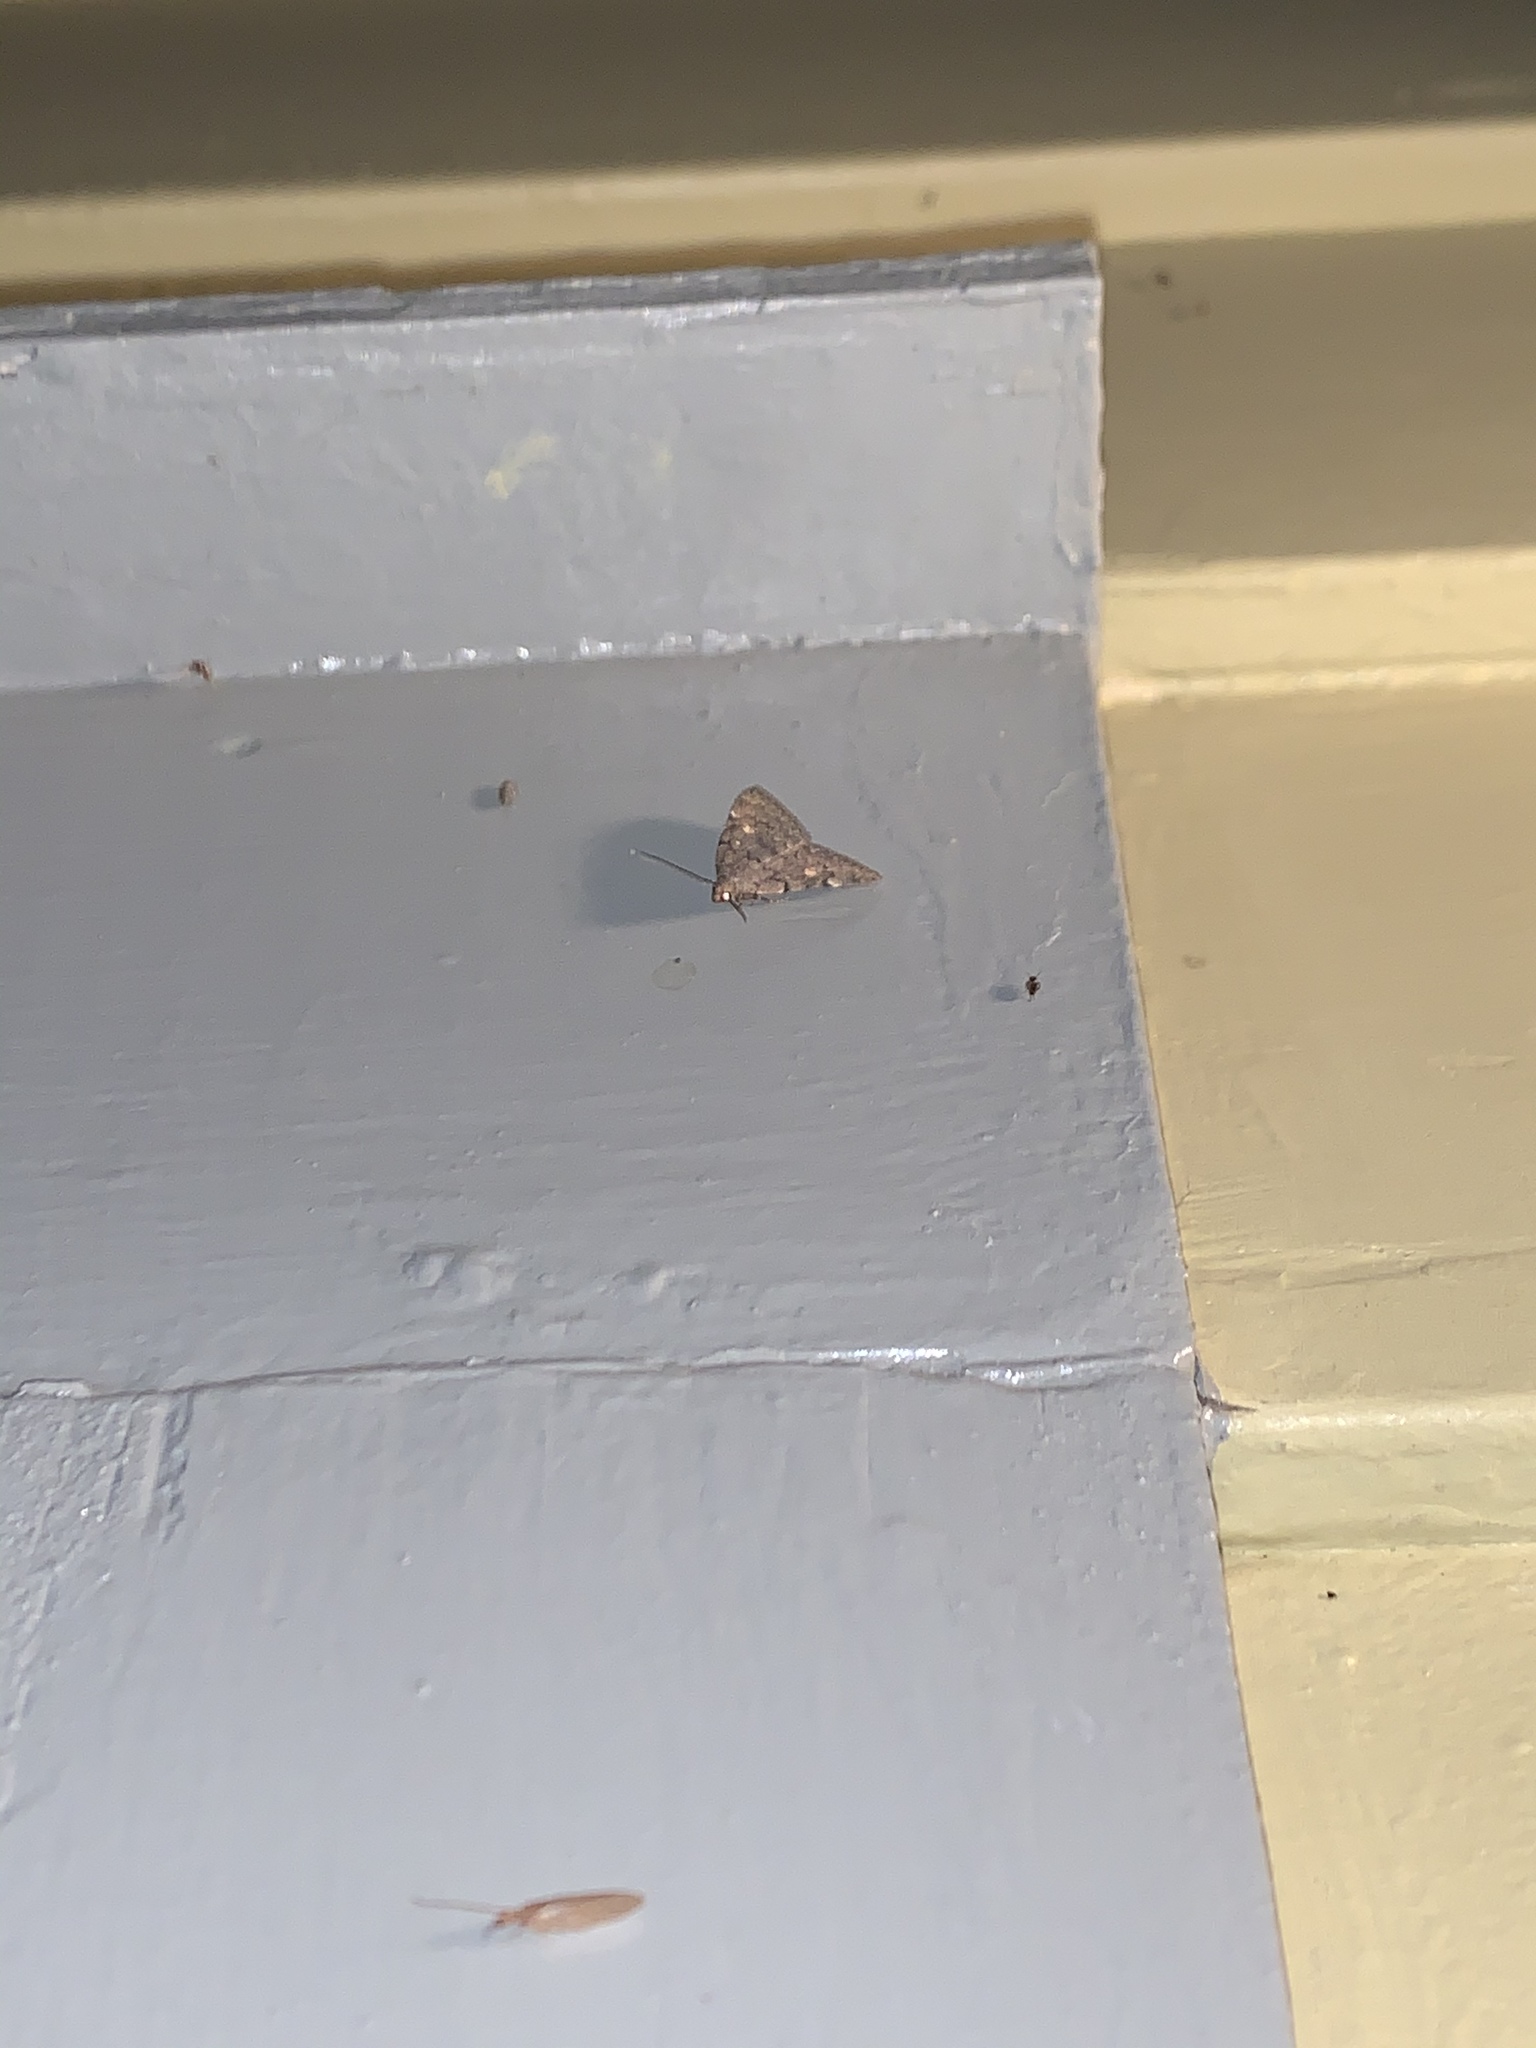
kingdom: Animalia
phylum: Arthropoda
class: Insecta
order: Lepidoptera
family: Erebidae
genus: Idia
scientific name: Idia aemula
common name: Common idia moth
